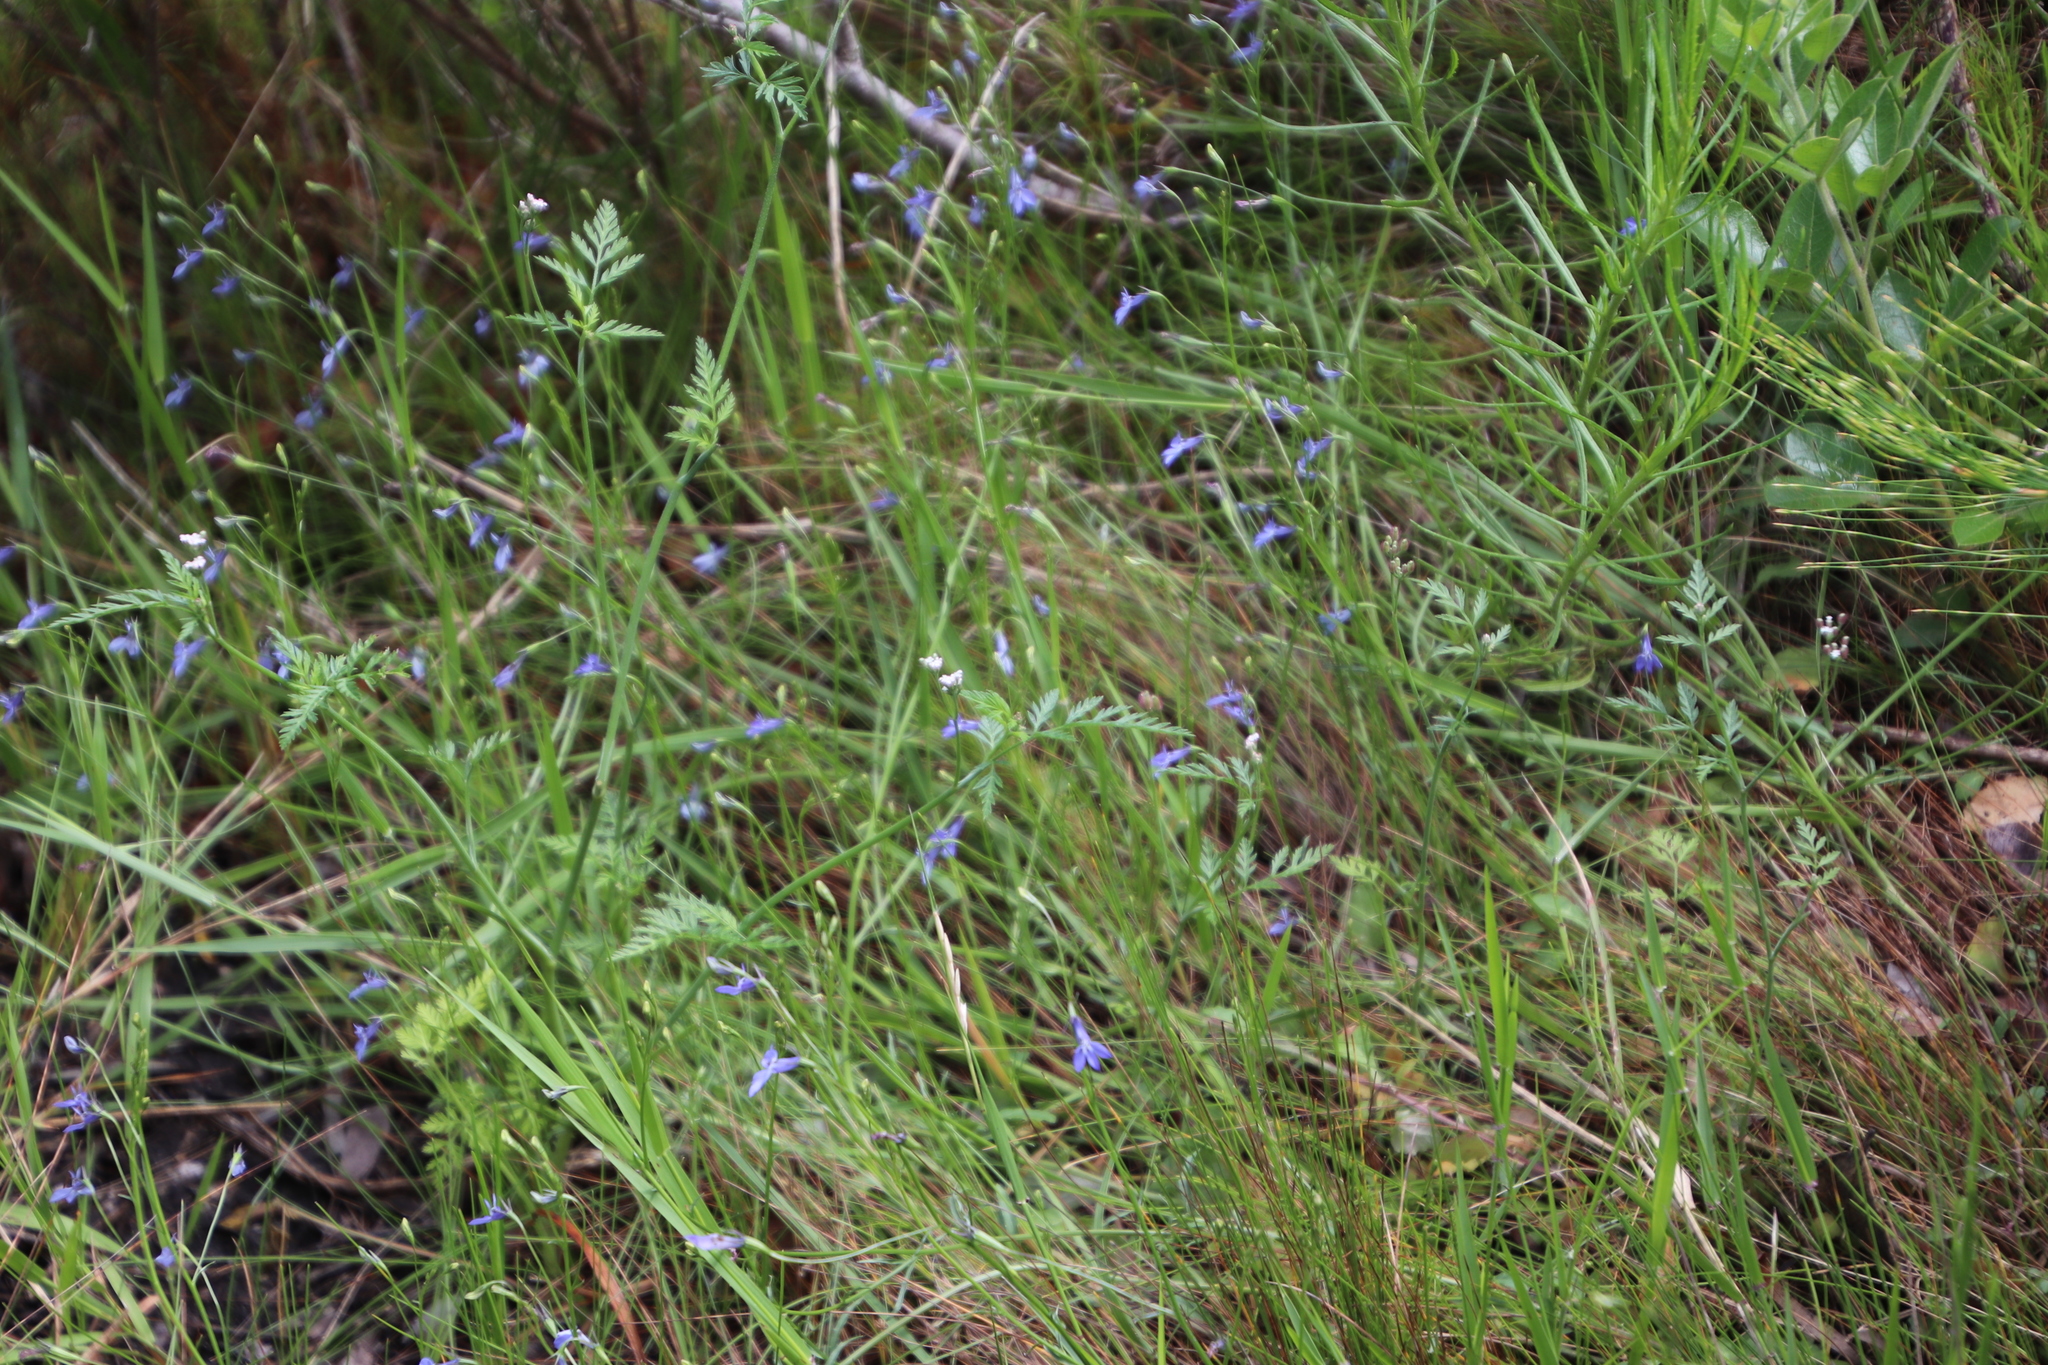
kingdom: Plantae
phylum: Tracheophyta
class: Magnoliopsida
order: Asterales
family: Campanulaceae
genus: Lobelia
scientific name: Lobelia erinus
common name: Edging lobelia
